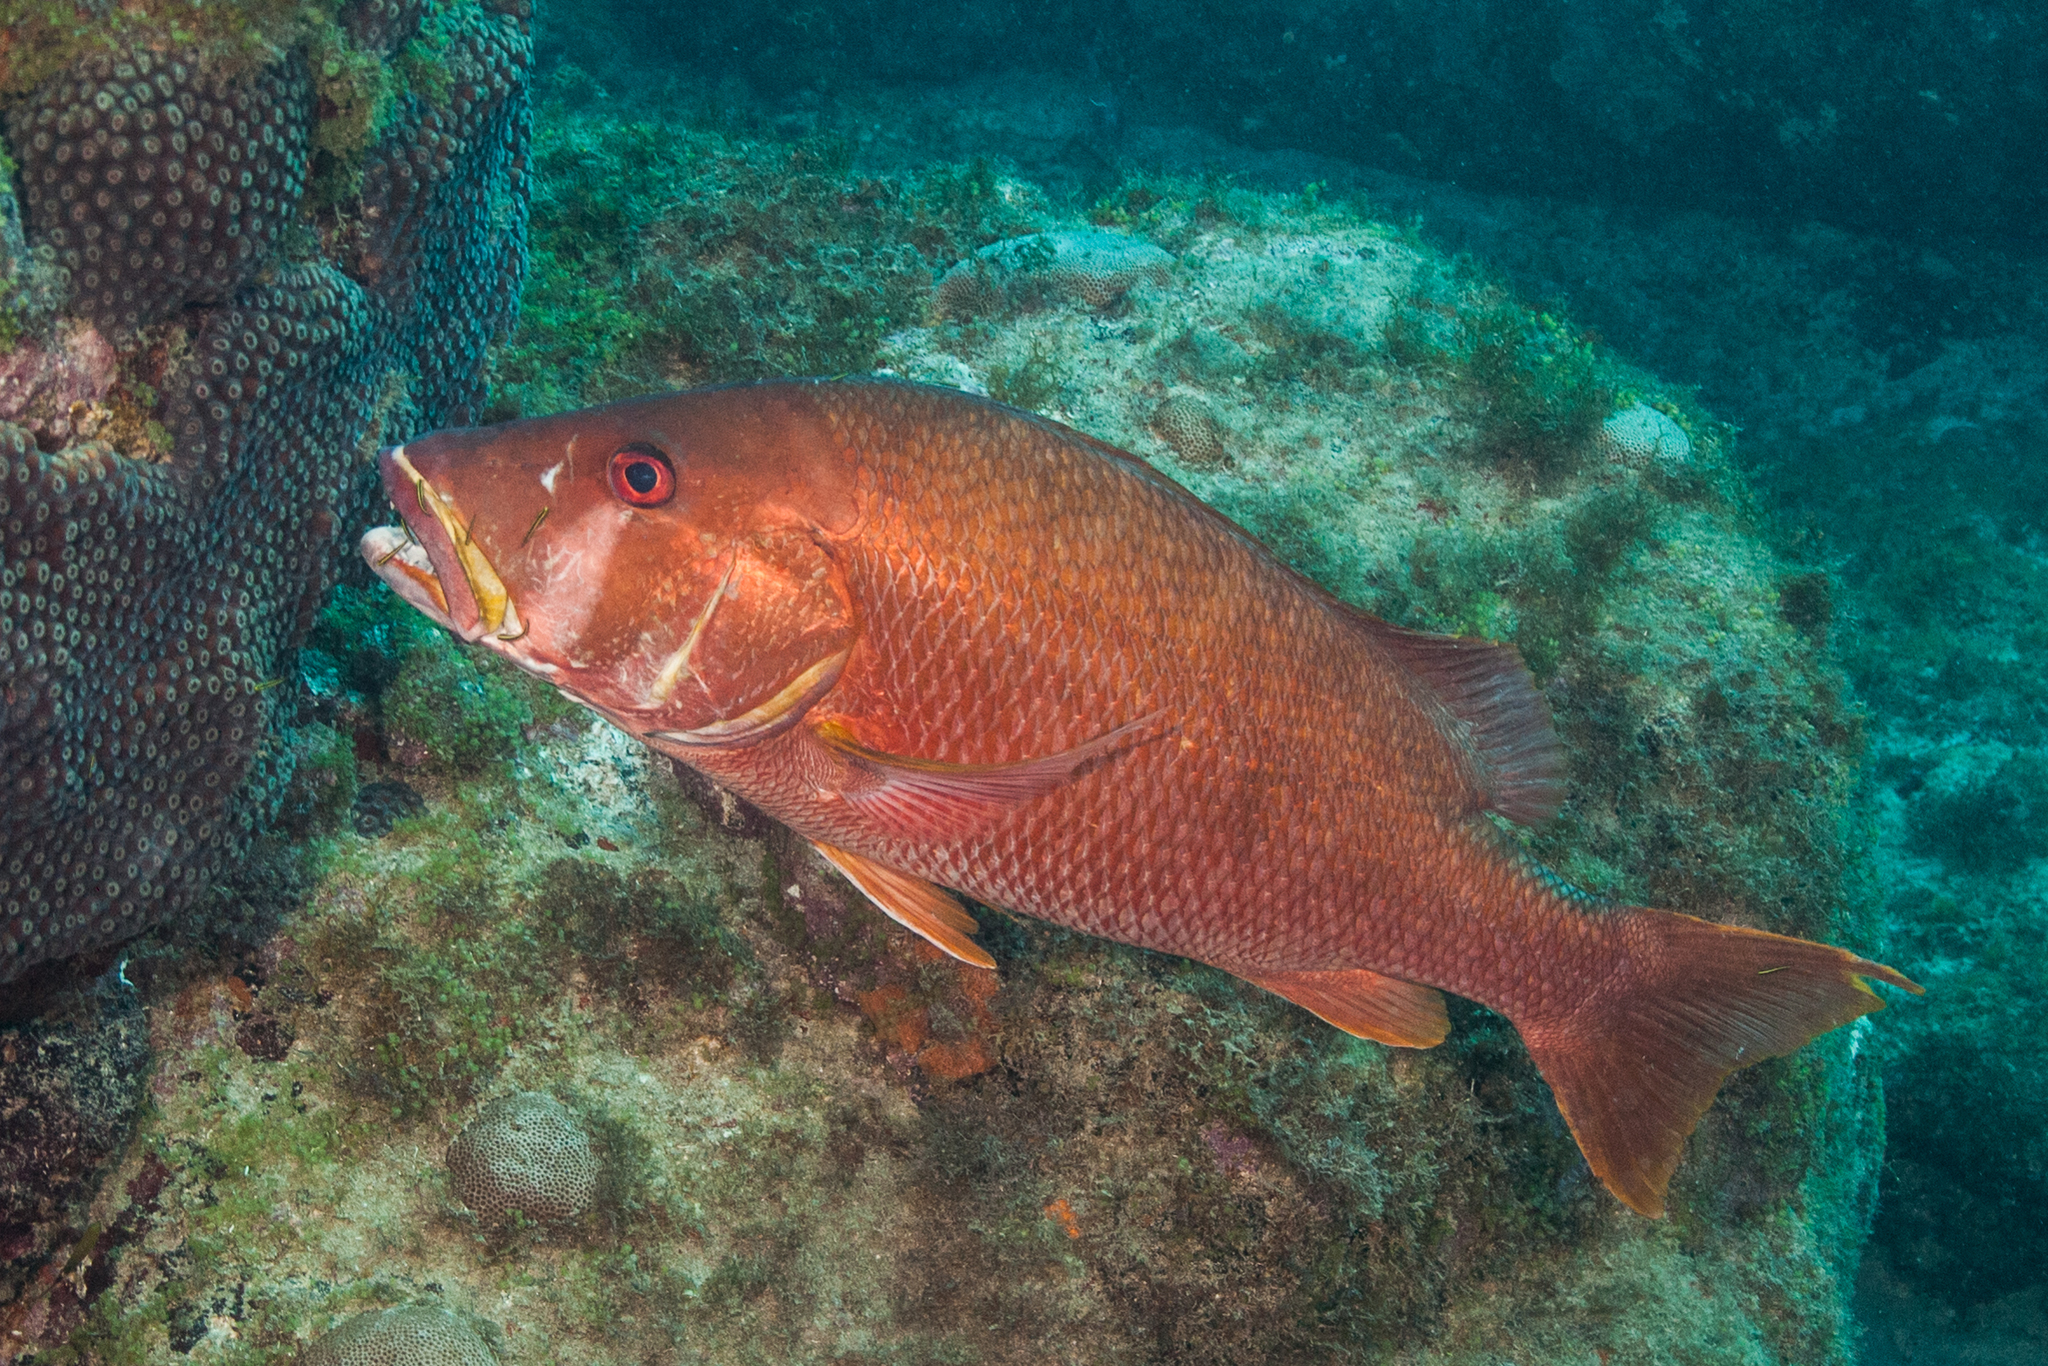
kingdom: Animalia
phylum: Chordata
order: Perciformes
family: Lutjanidae
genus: Lutjanus
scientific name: Lutjanus jocu
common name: Dog snapper
